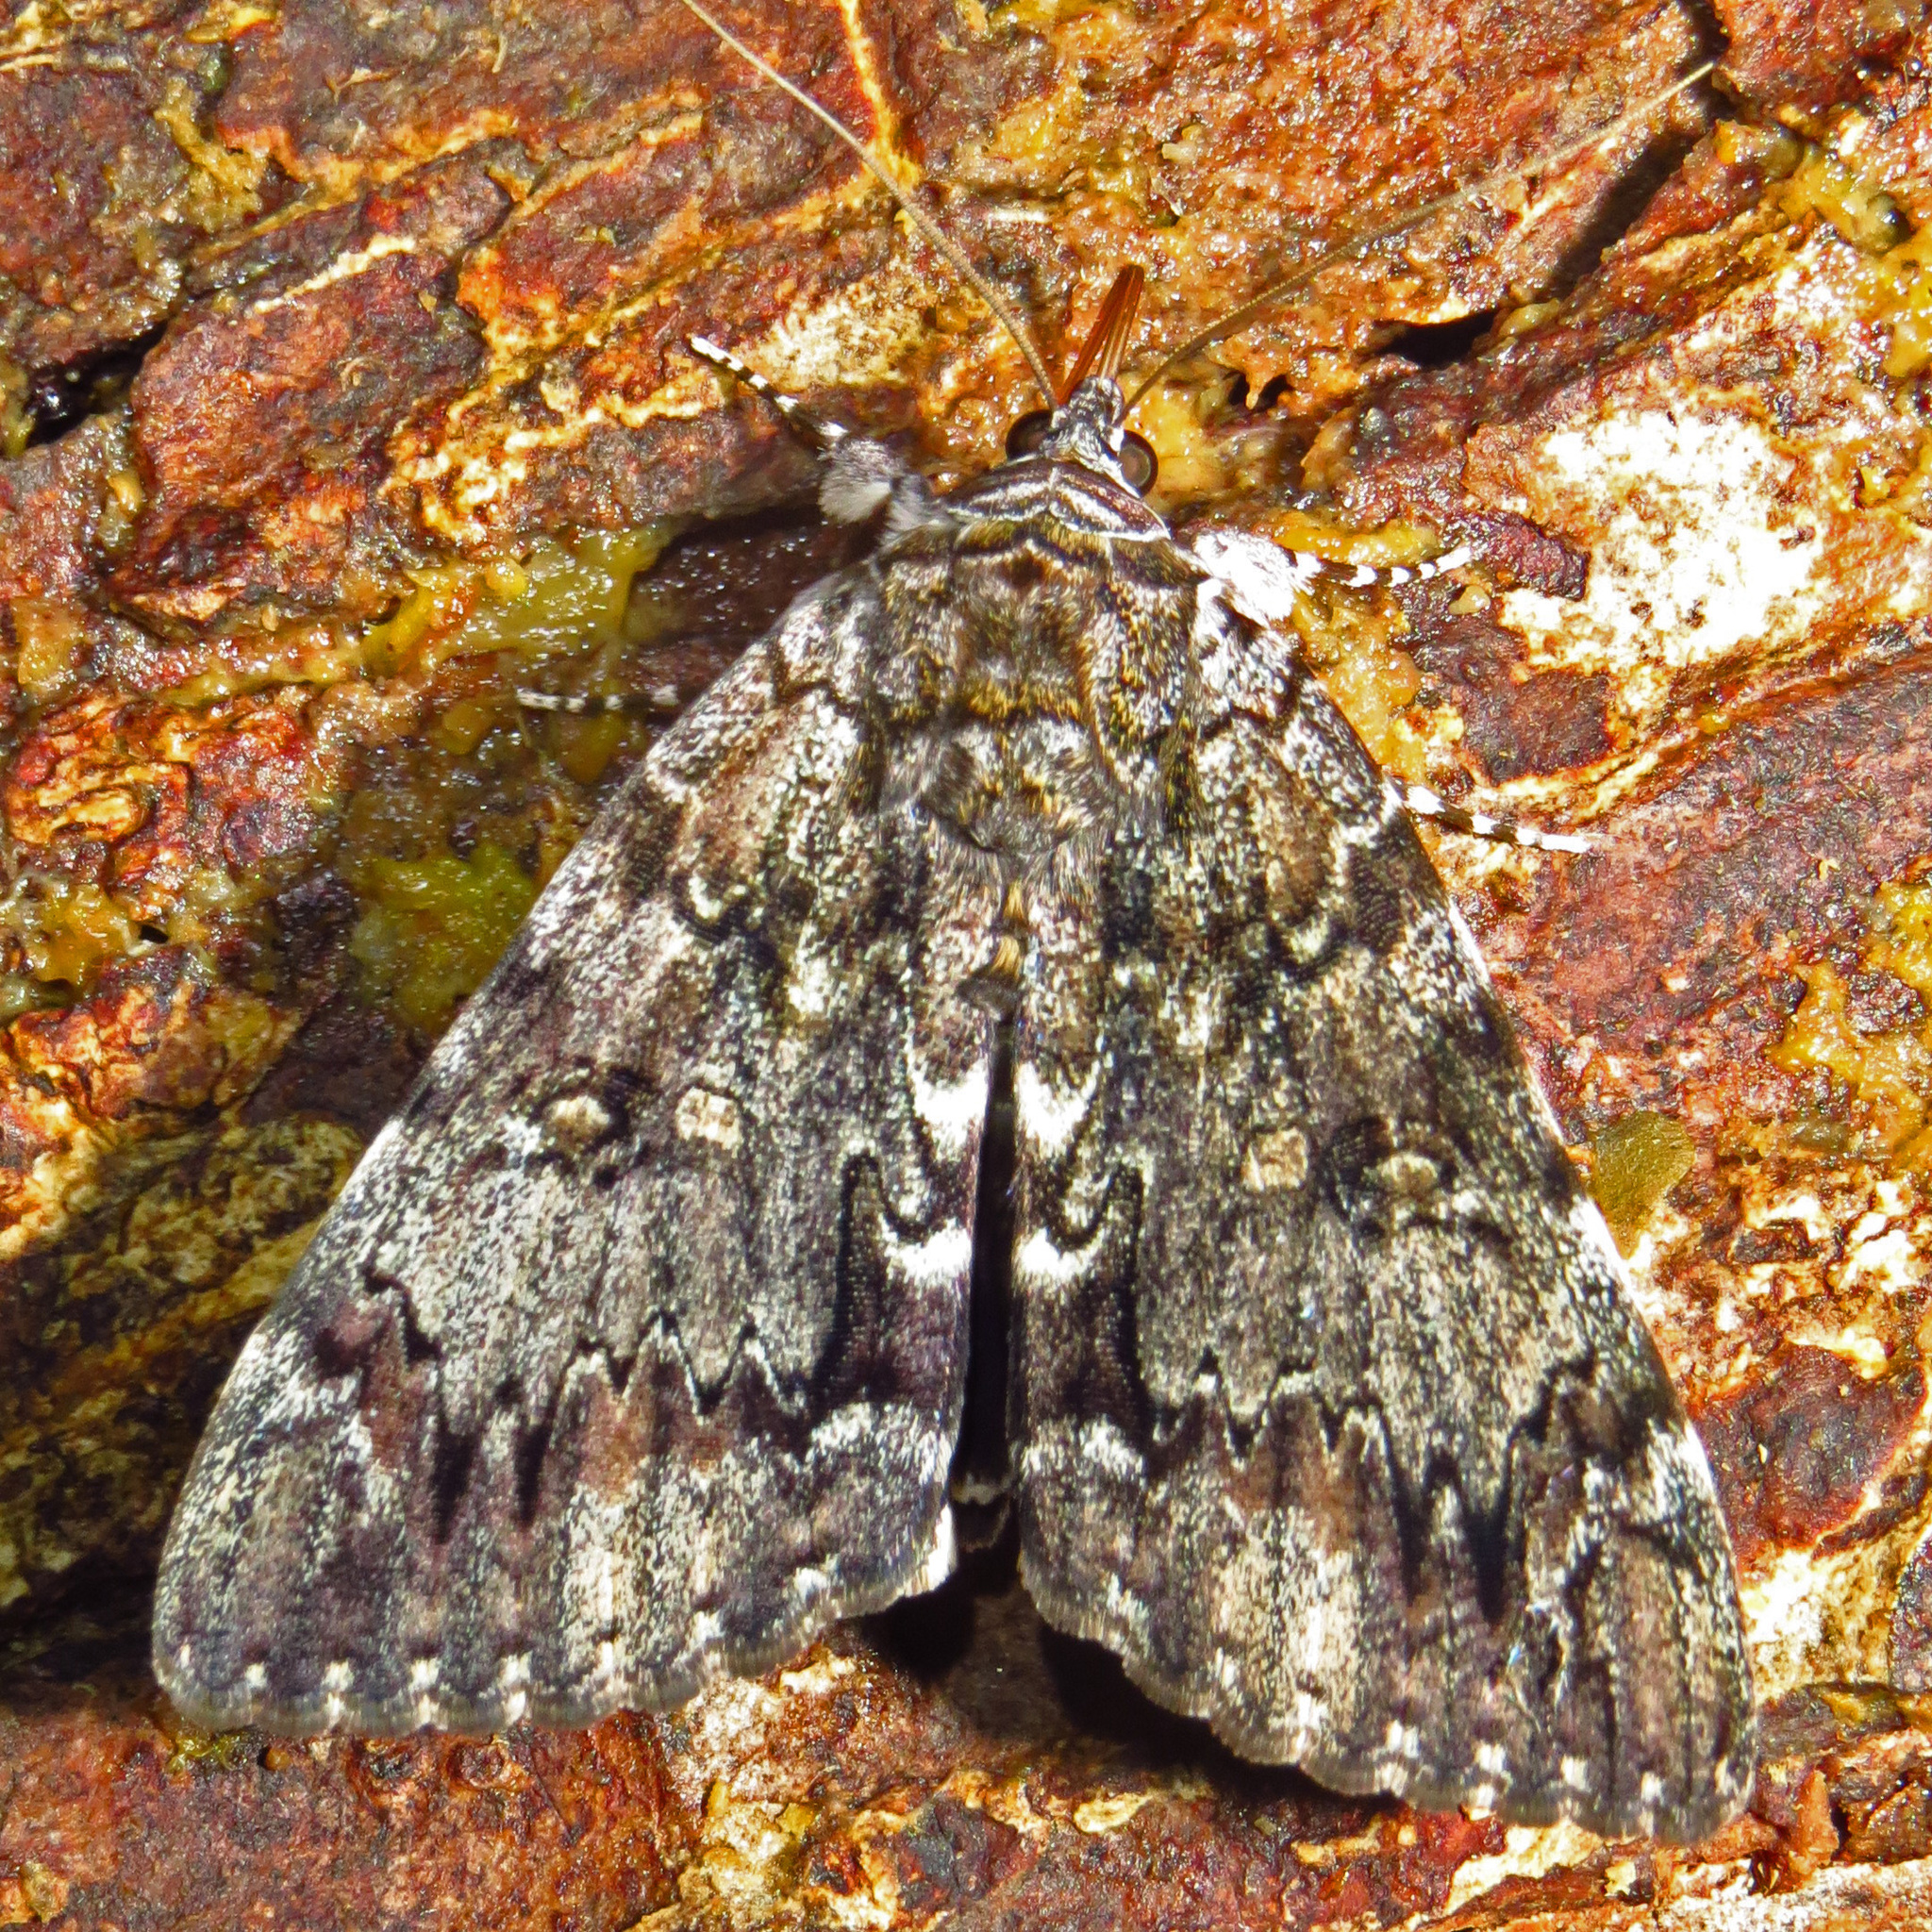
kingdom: Animalia
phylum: Arthropoda
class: Insecta
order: Lepidoptera
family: Erebidae
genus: Catocala
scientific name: Catocala lacrymosa
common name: Tearful underwing
